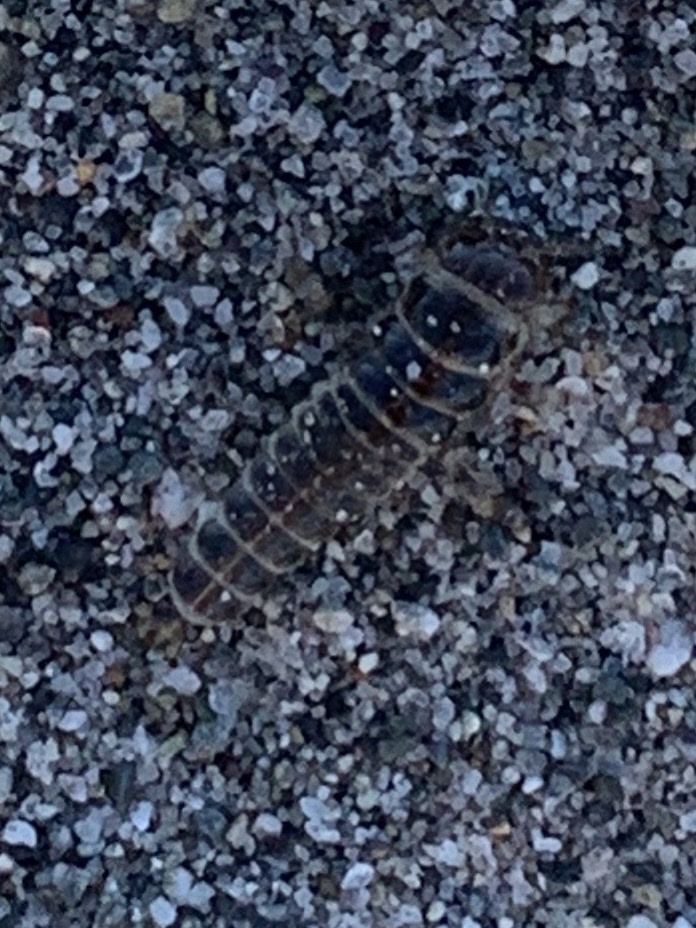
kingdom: Animalia
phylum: Arthropoda
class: Insecta
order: Coleoptera
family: Staphylinidae
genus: Thinopinus
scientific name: Thinopinus pictus
